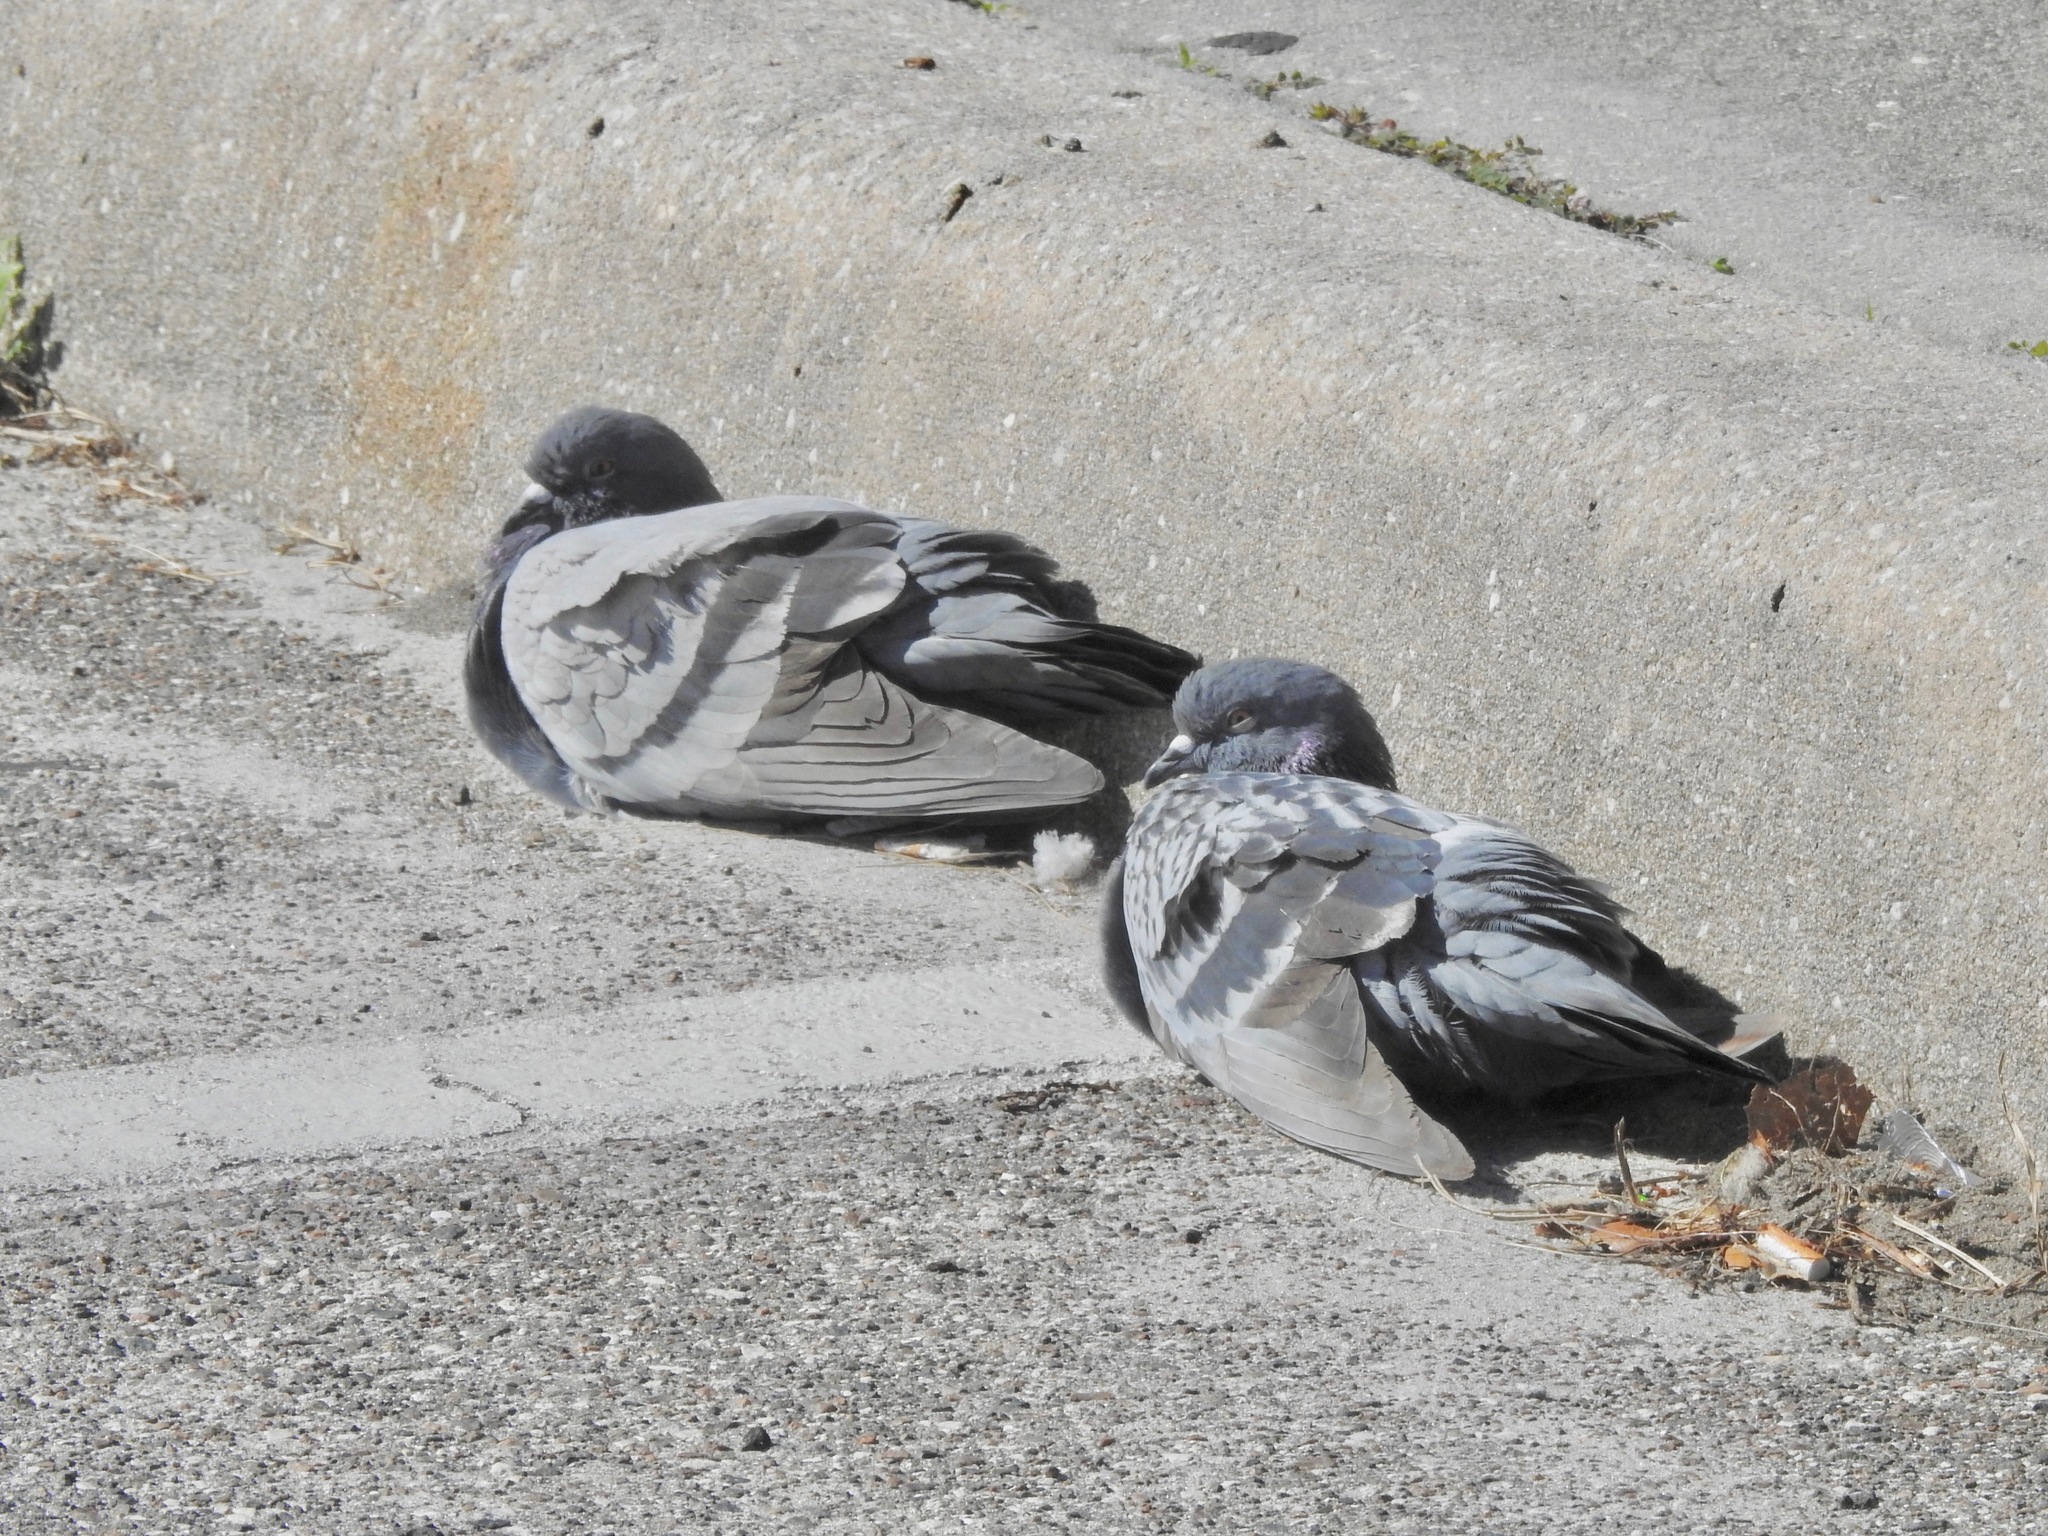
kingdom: Animalia
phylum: Chordata
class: Aves
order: Columbiformes
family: Columbidae
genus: Columba
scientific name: Columba livia
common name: Rock pigeon
